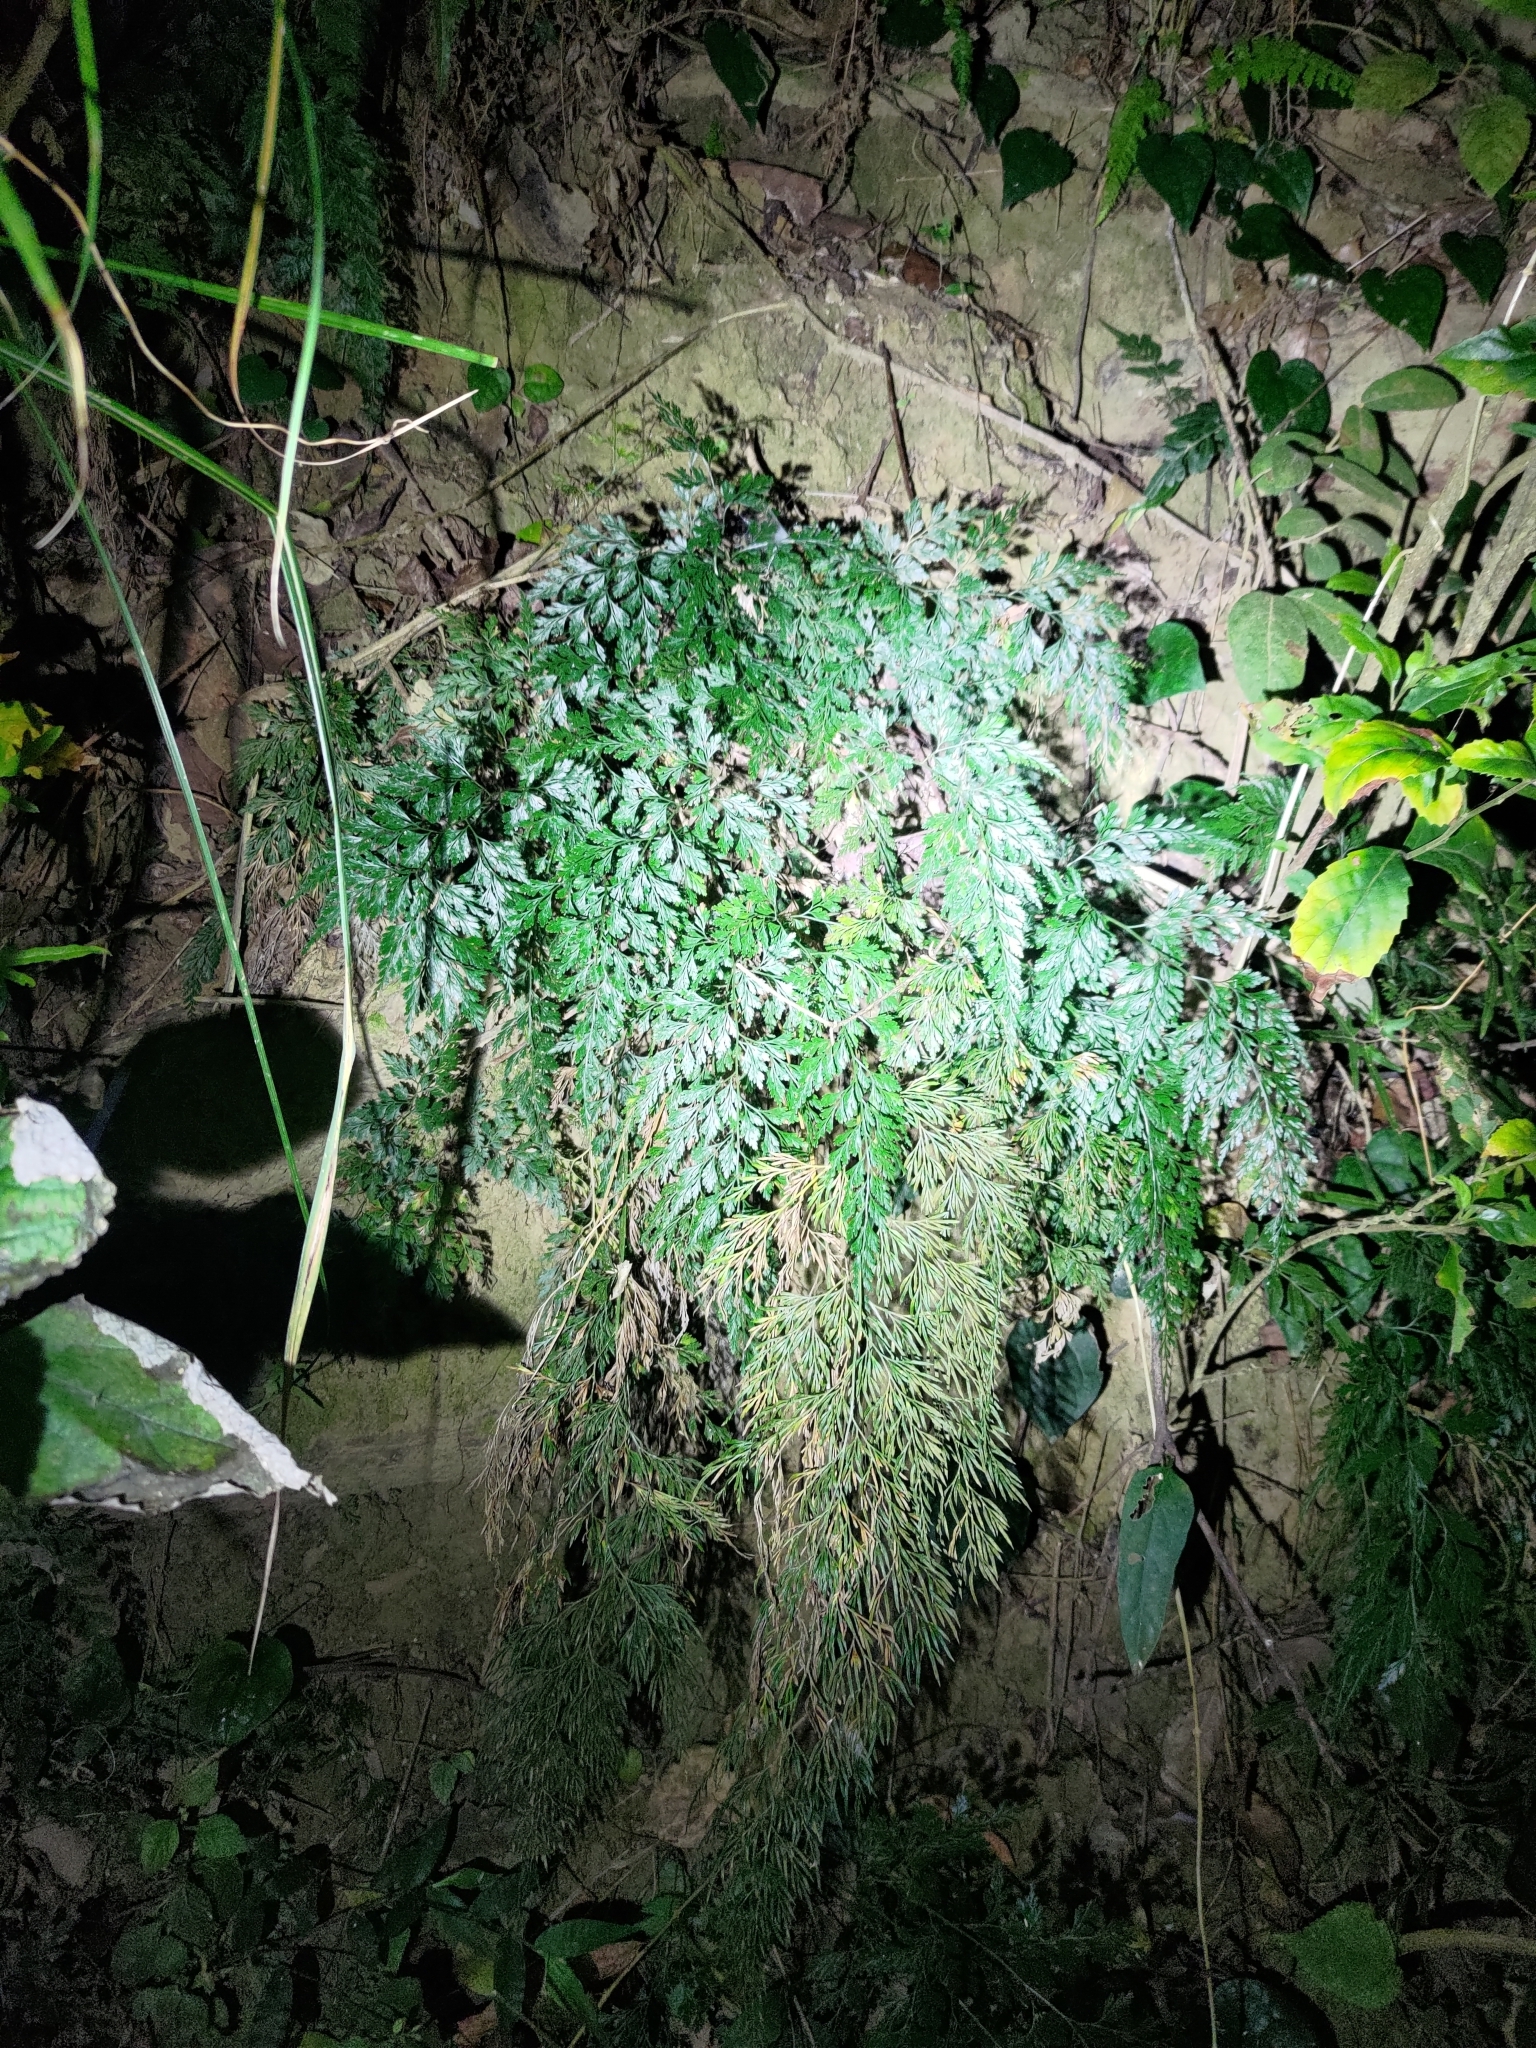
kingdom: Plantae
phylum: Tracheophyta
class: Polypodiopsida
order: Polypodiales
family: Pteridaceae
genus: Onychium
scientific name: Onychium japonicum
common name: Carrot fern
